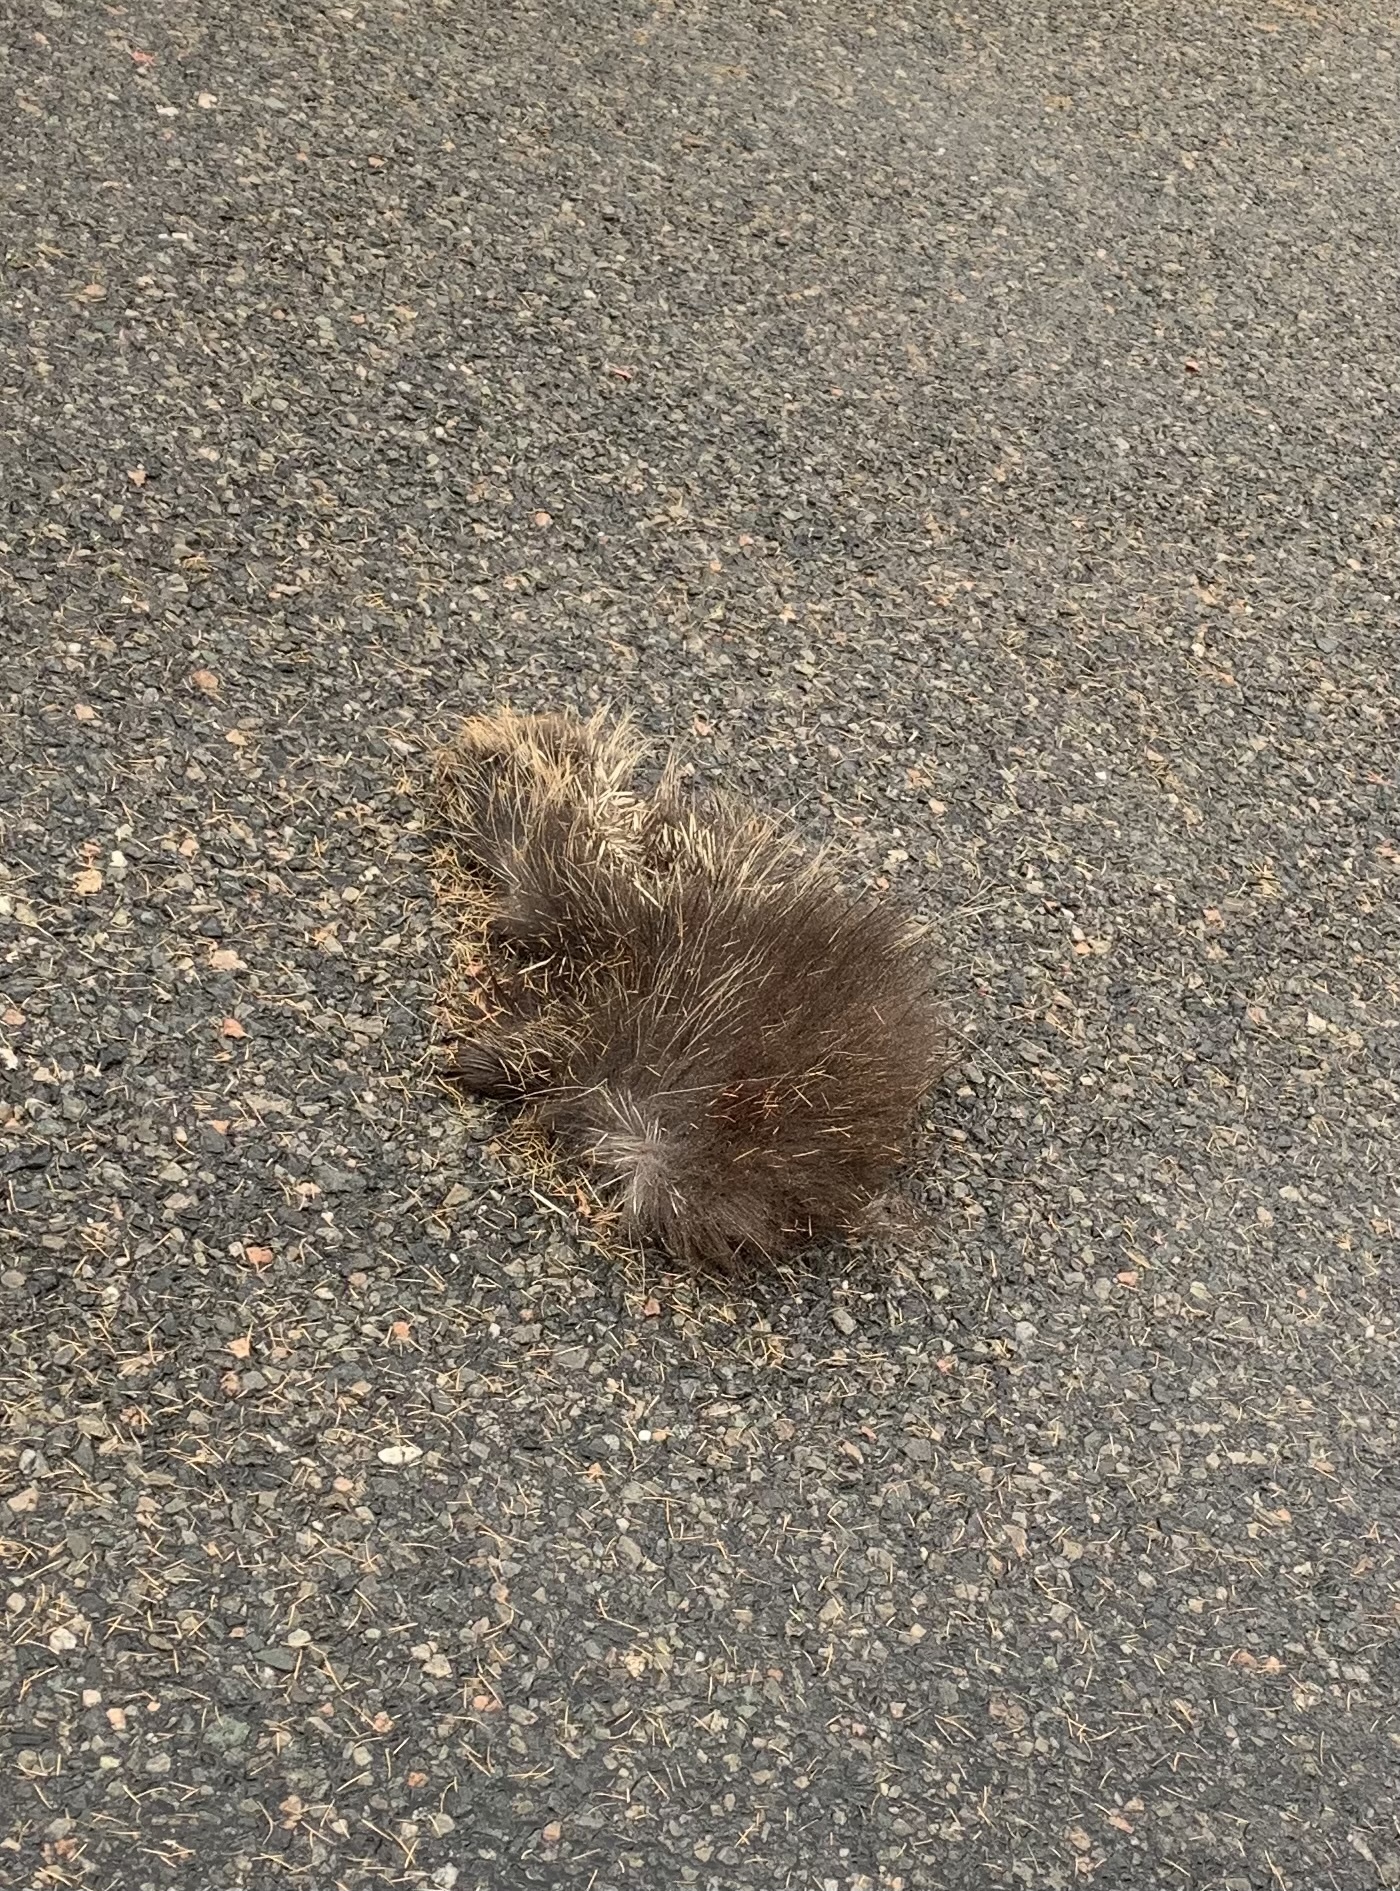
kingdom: Animalia
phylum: Chordata
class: Mammalia
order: Rodentia
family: Erethizontidae
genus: Erethizon
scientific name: Erethizon dorsatus
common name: North american porcupine
